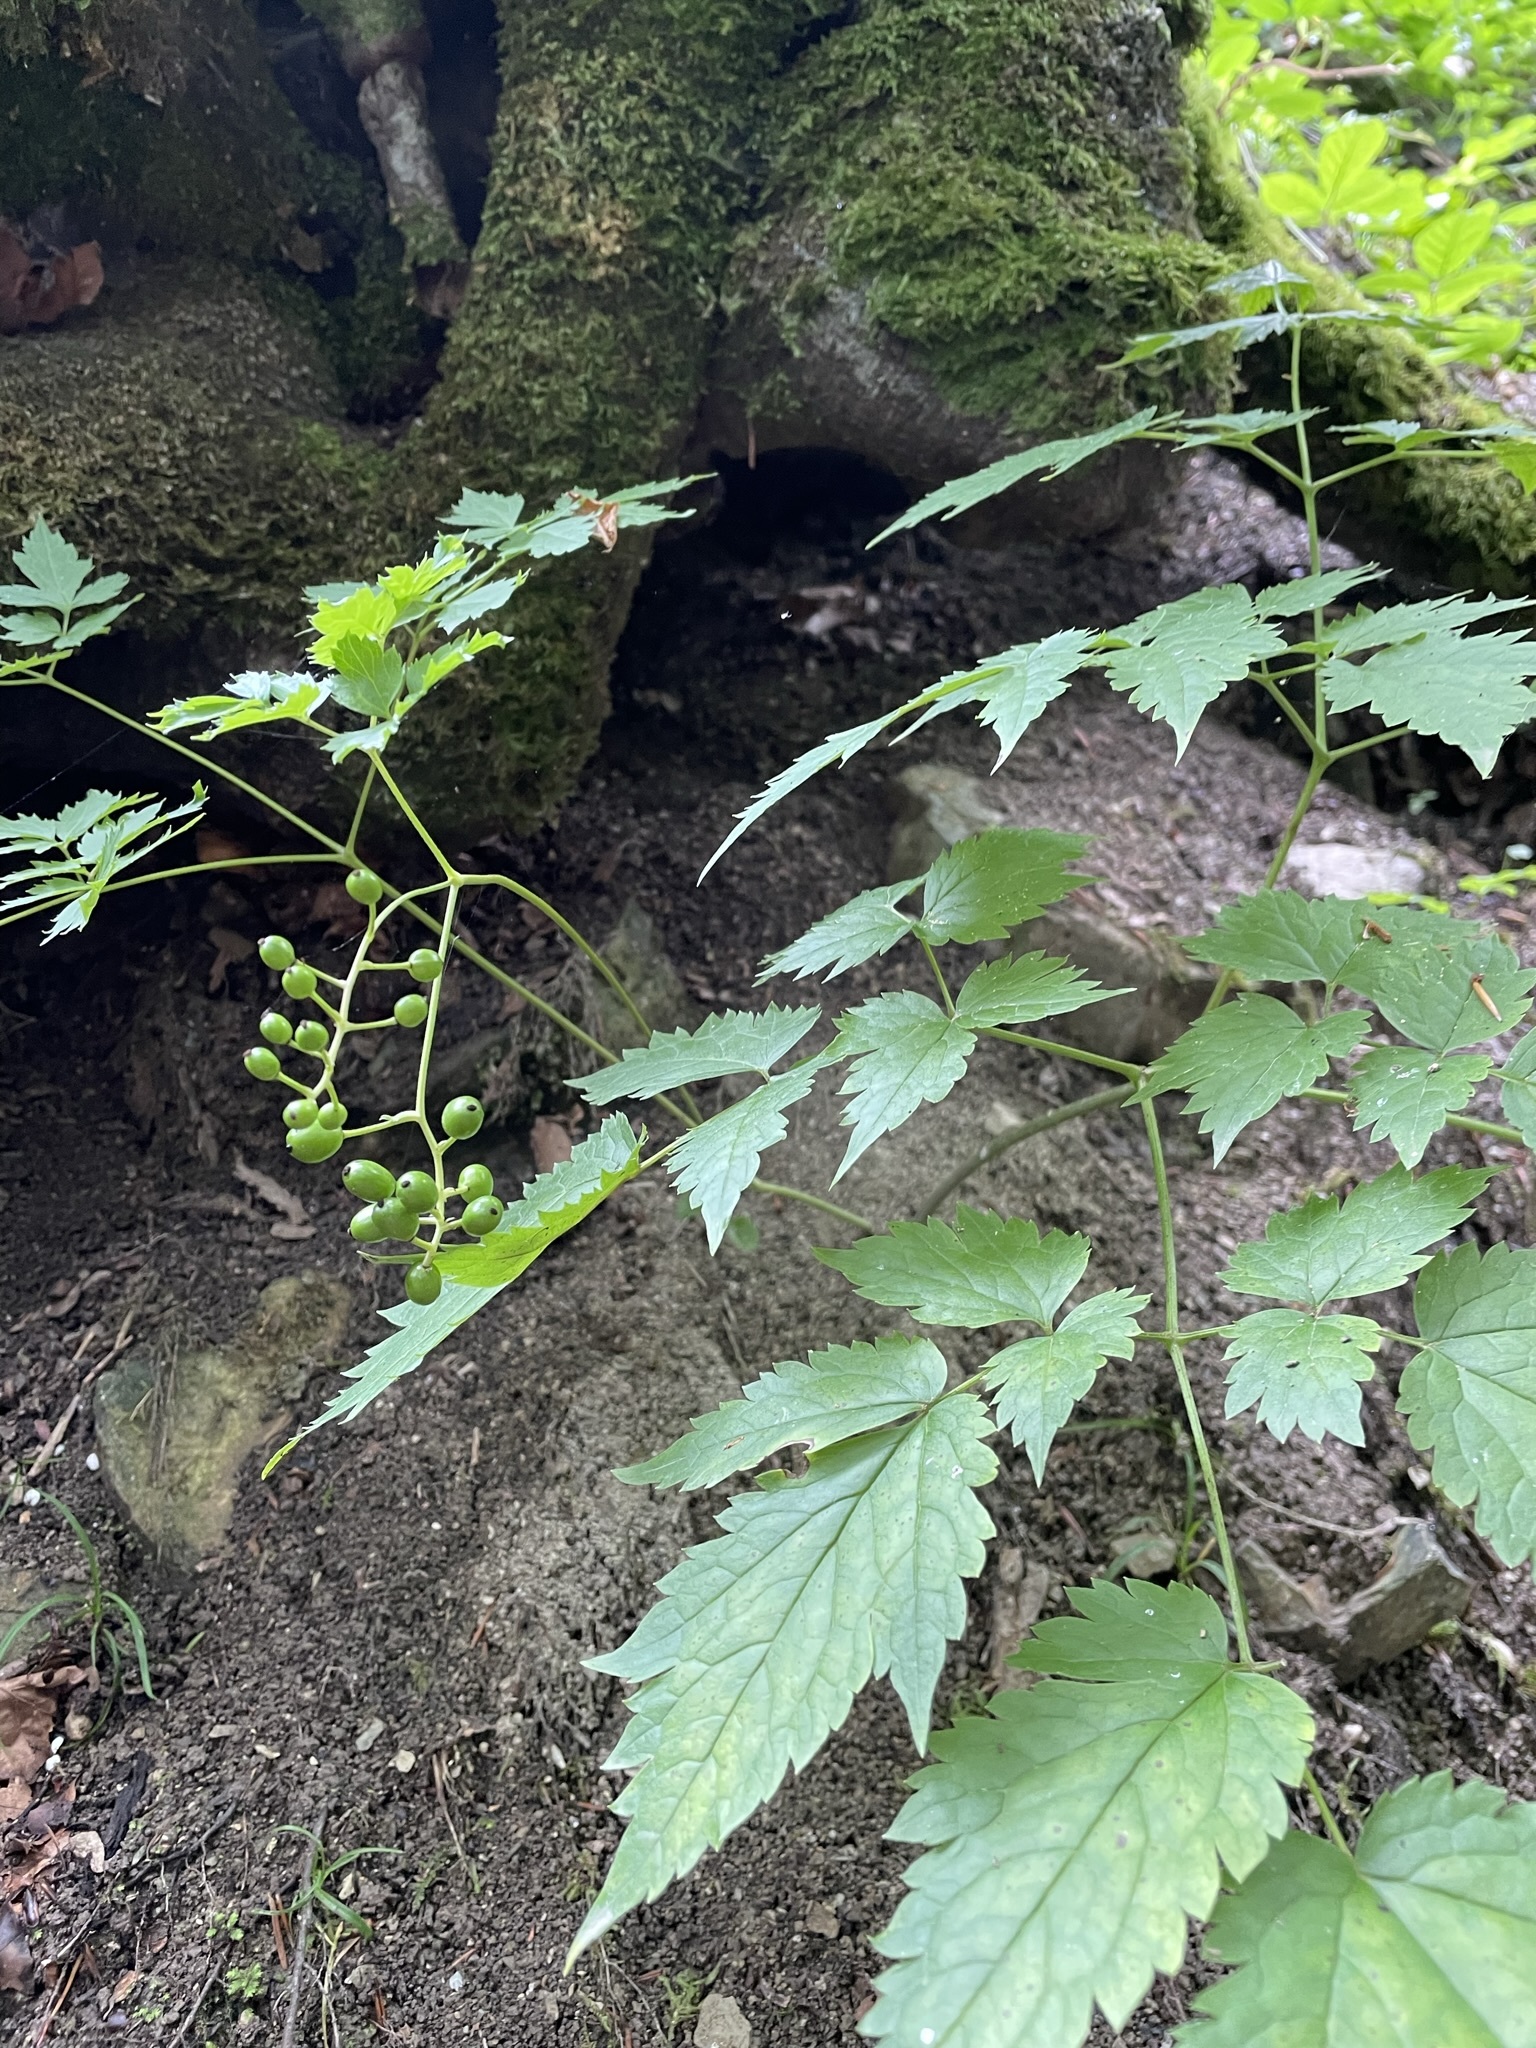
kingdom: Plantae
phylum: Tracheophyta
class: Magnoliopsida
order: Ranunculales
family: Ranunculaceae
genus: Actaea
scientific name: Actaea spicata
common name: Baneberry
